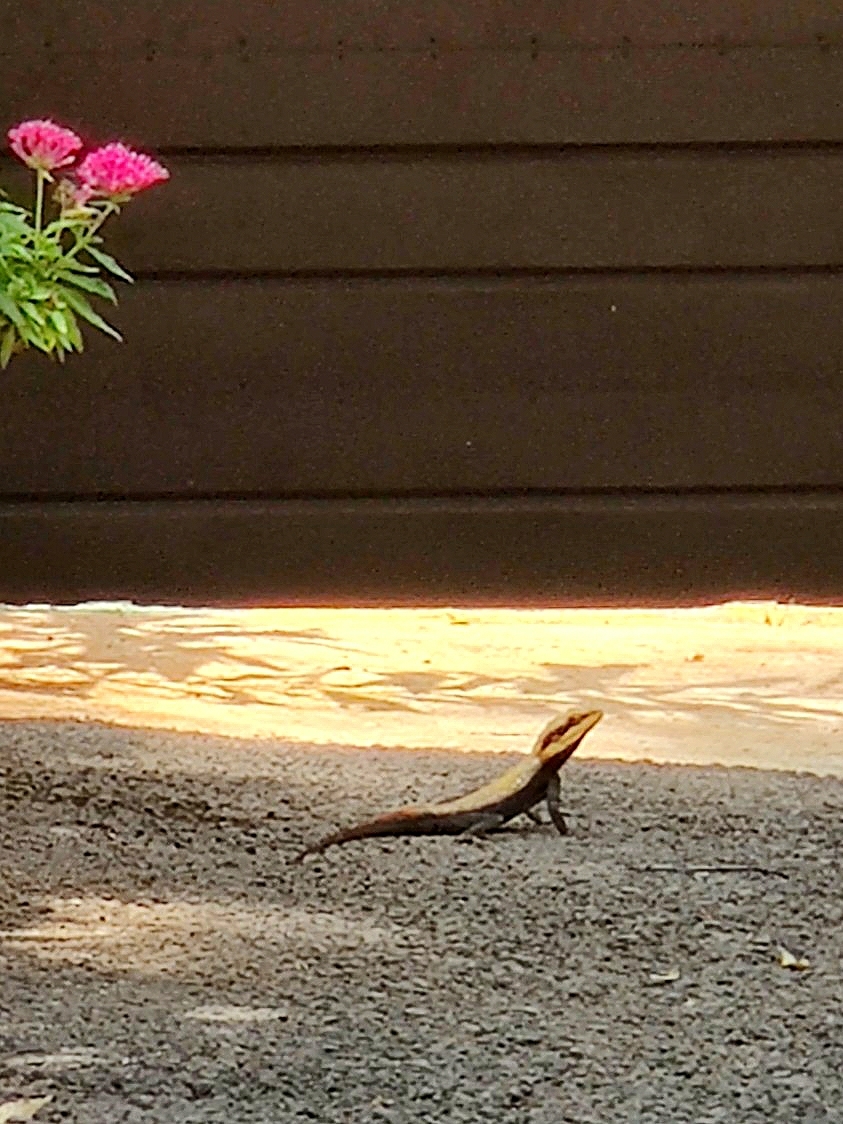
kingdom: Animalia
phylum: Chordata
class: Squamata
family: Agamidae
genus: Psammophilus
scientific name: Psammophilus dorsalis
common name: South indian rock agama
